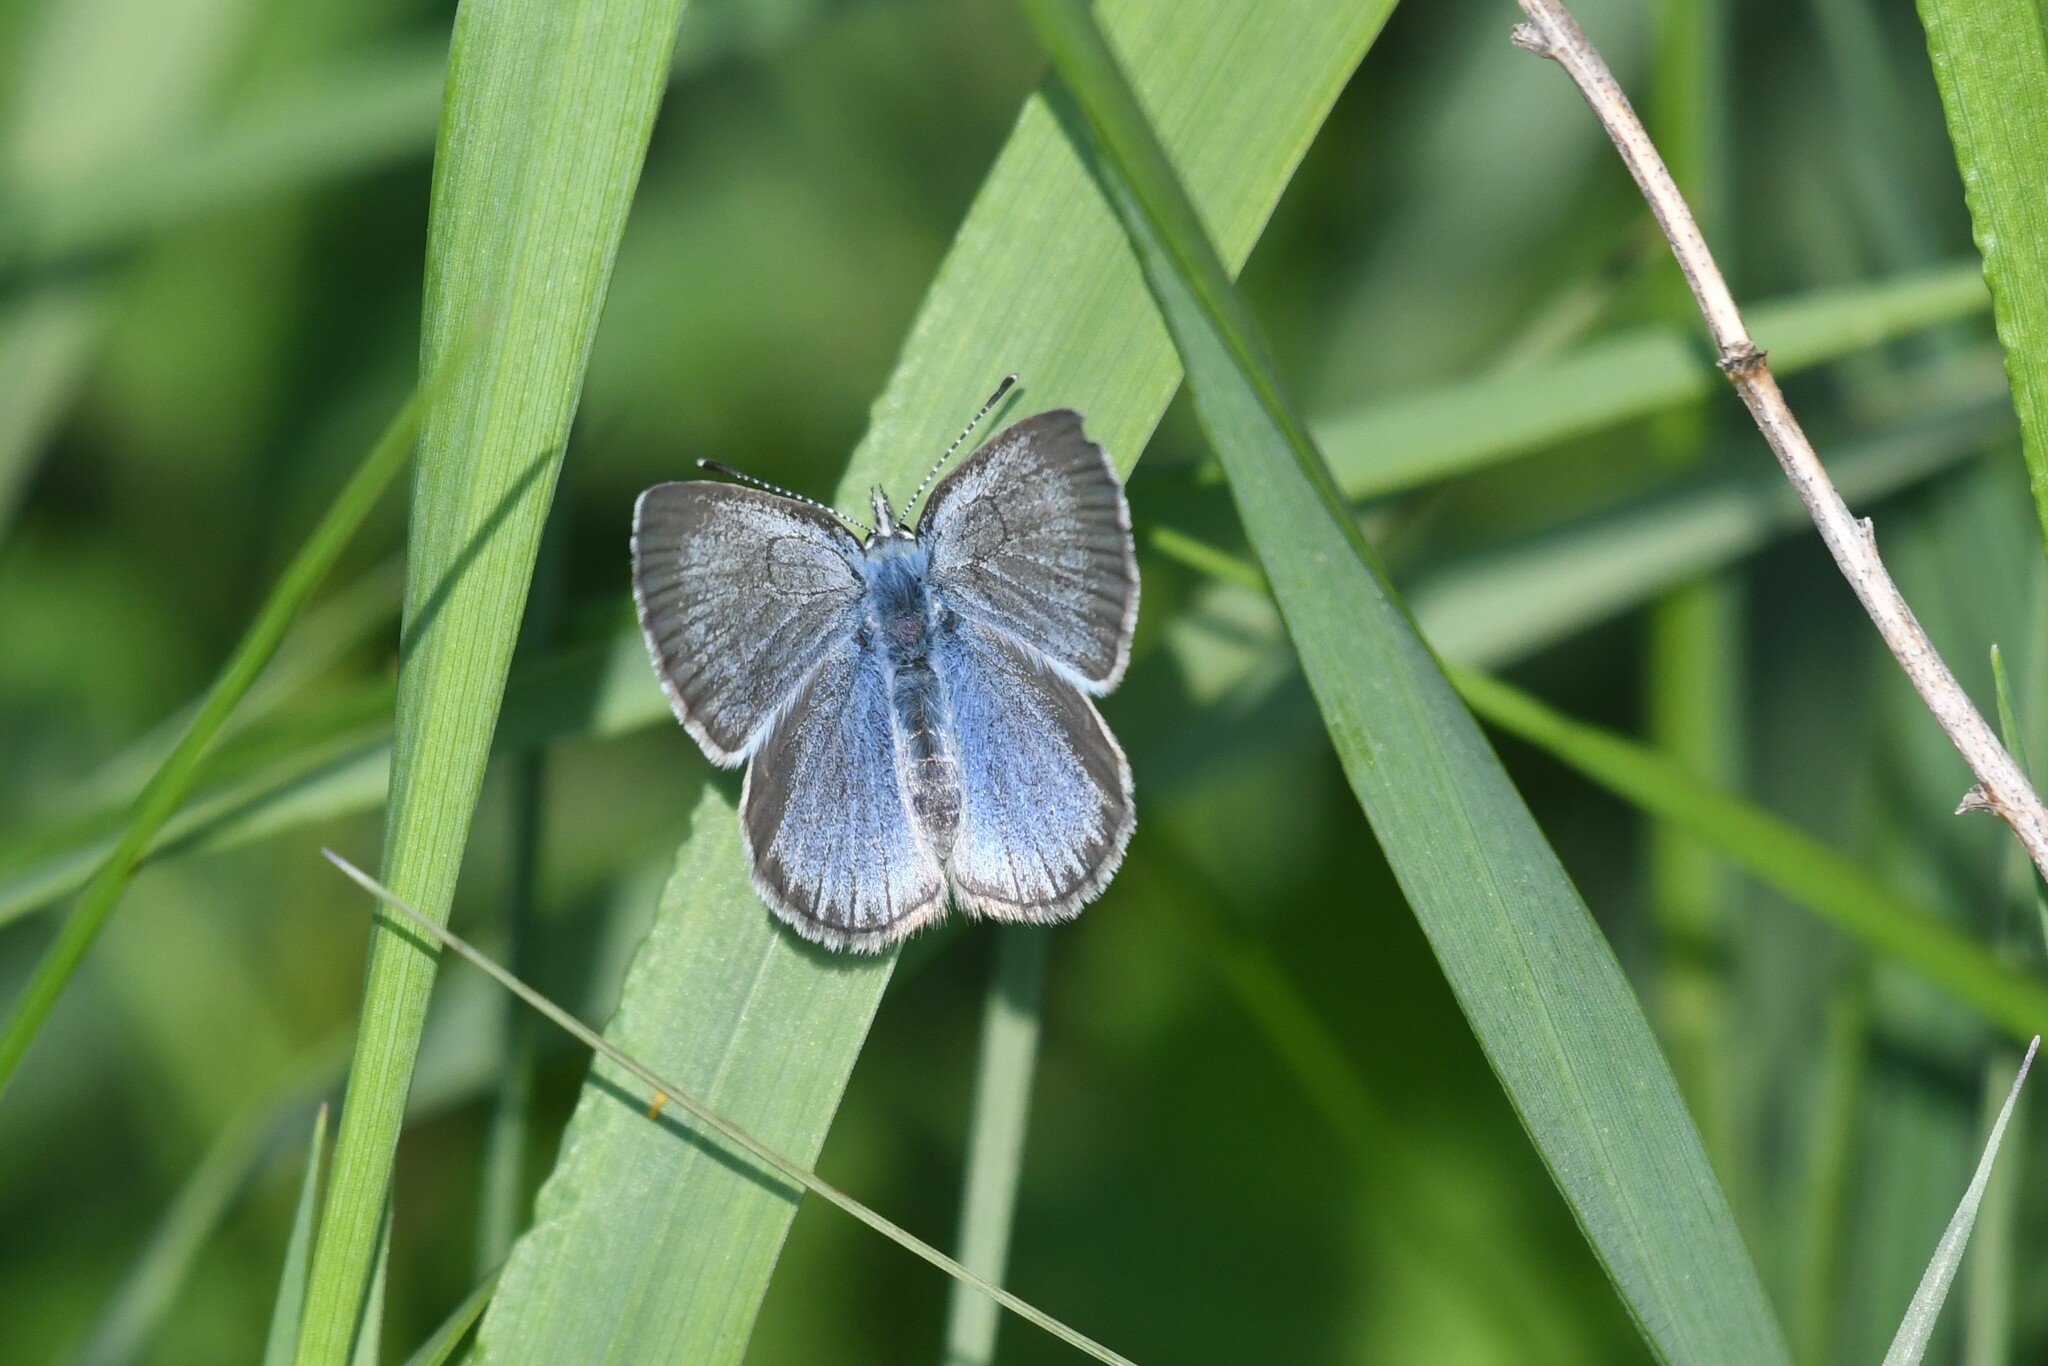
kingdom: Animalia
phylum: Arthropoda
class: Insecta
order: Lepidoptera
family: Lycaenidae
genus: Glaucopsyche
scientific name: Glaucopsyche lygdamus
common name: Silvery blue
